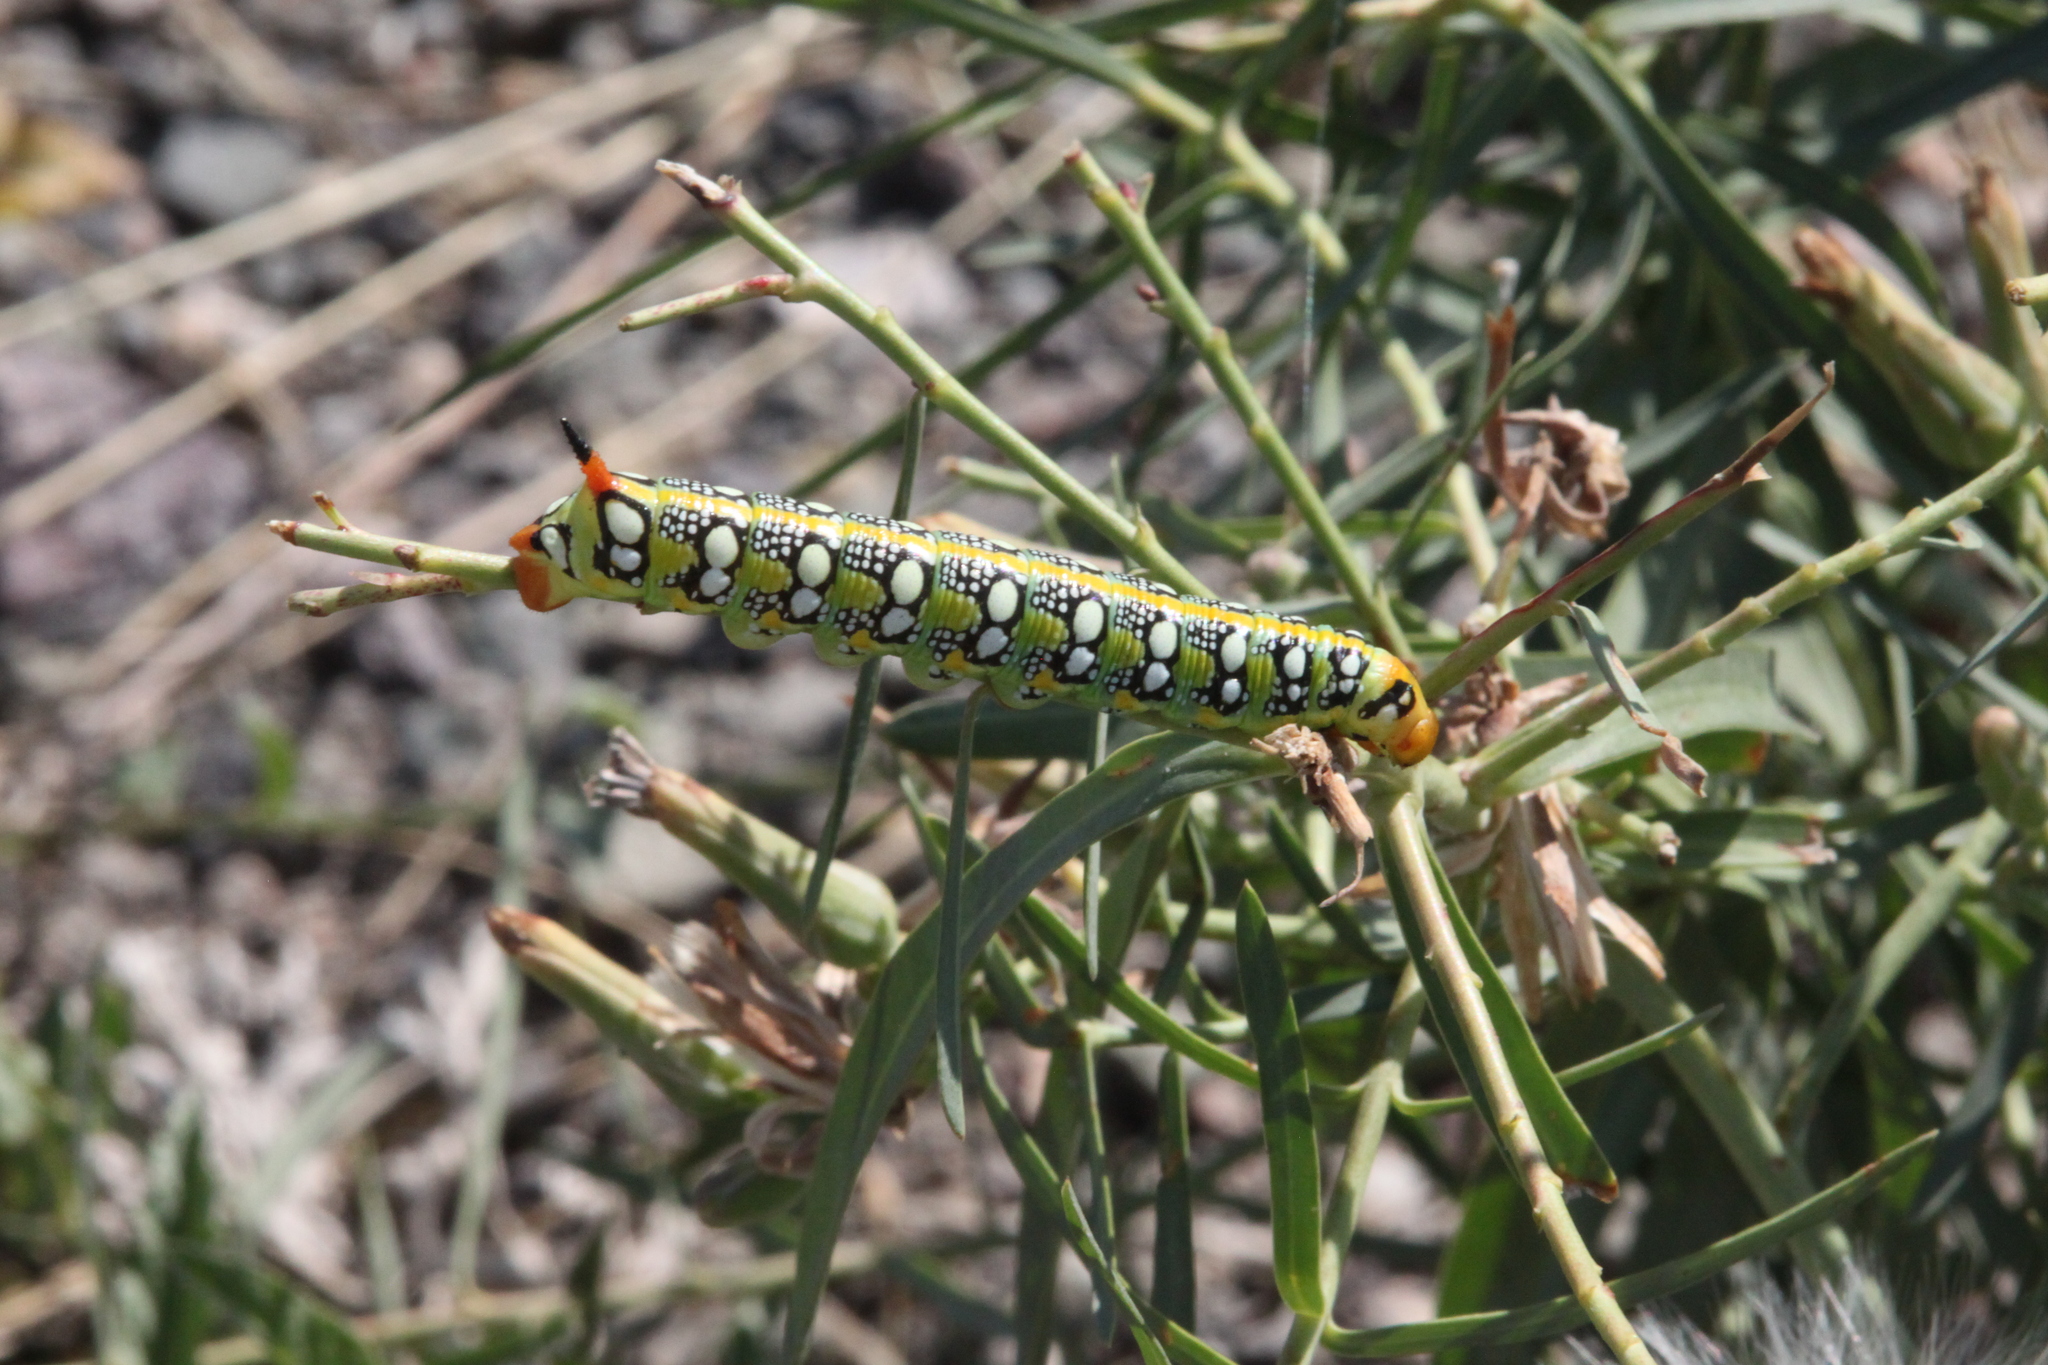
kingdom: Animalia
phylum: Arthropoda
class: Insecta
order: Lepidoptera
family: Sphingidae
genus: Hyles
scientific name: Hyles euphorbiae
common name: Spurge hawk-moth
